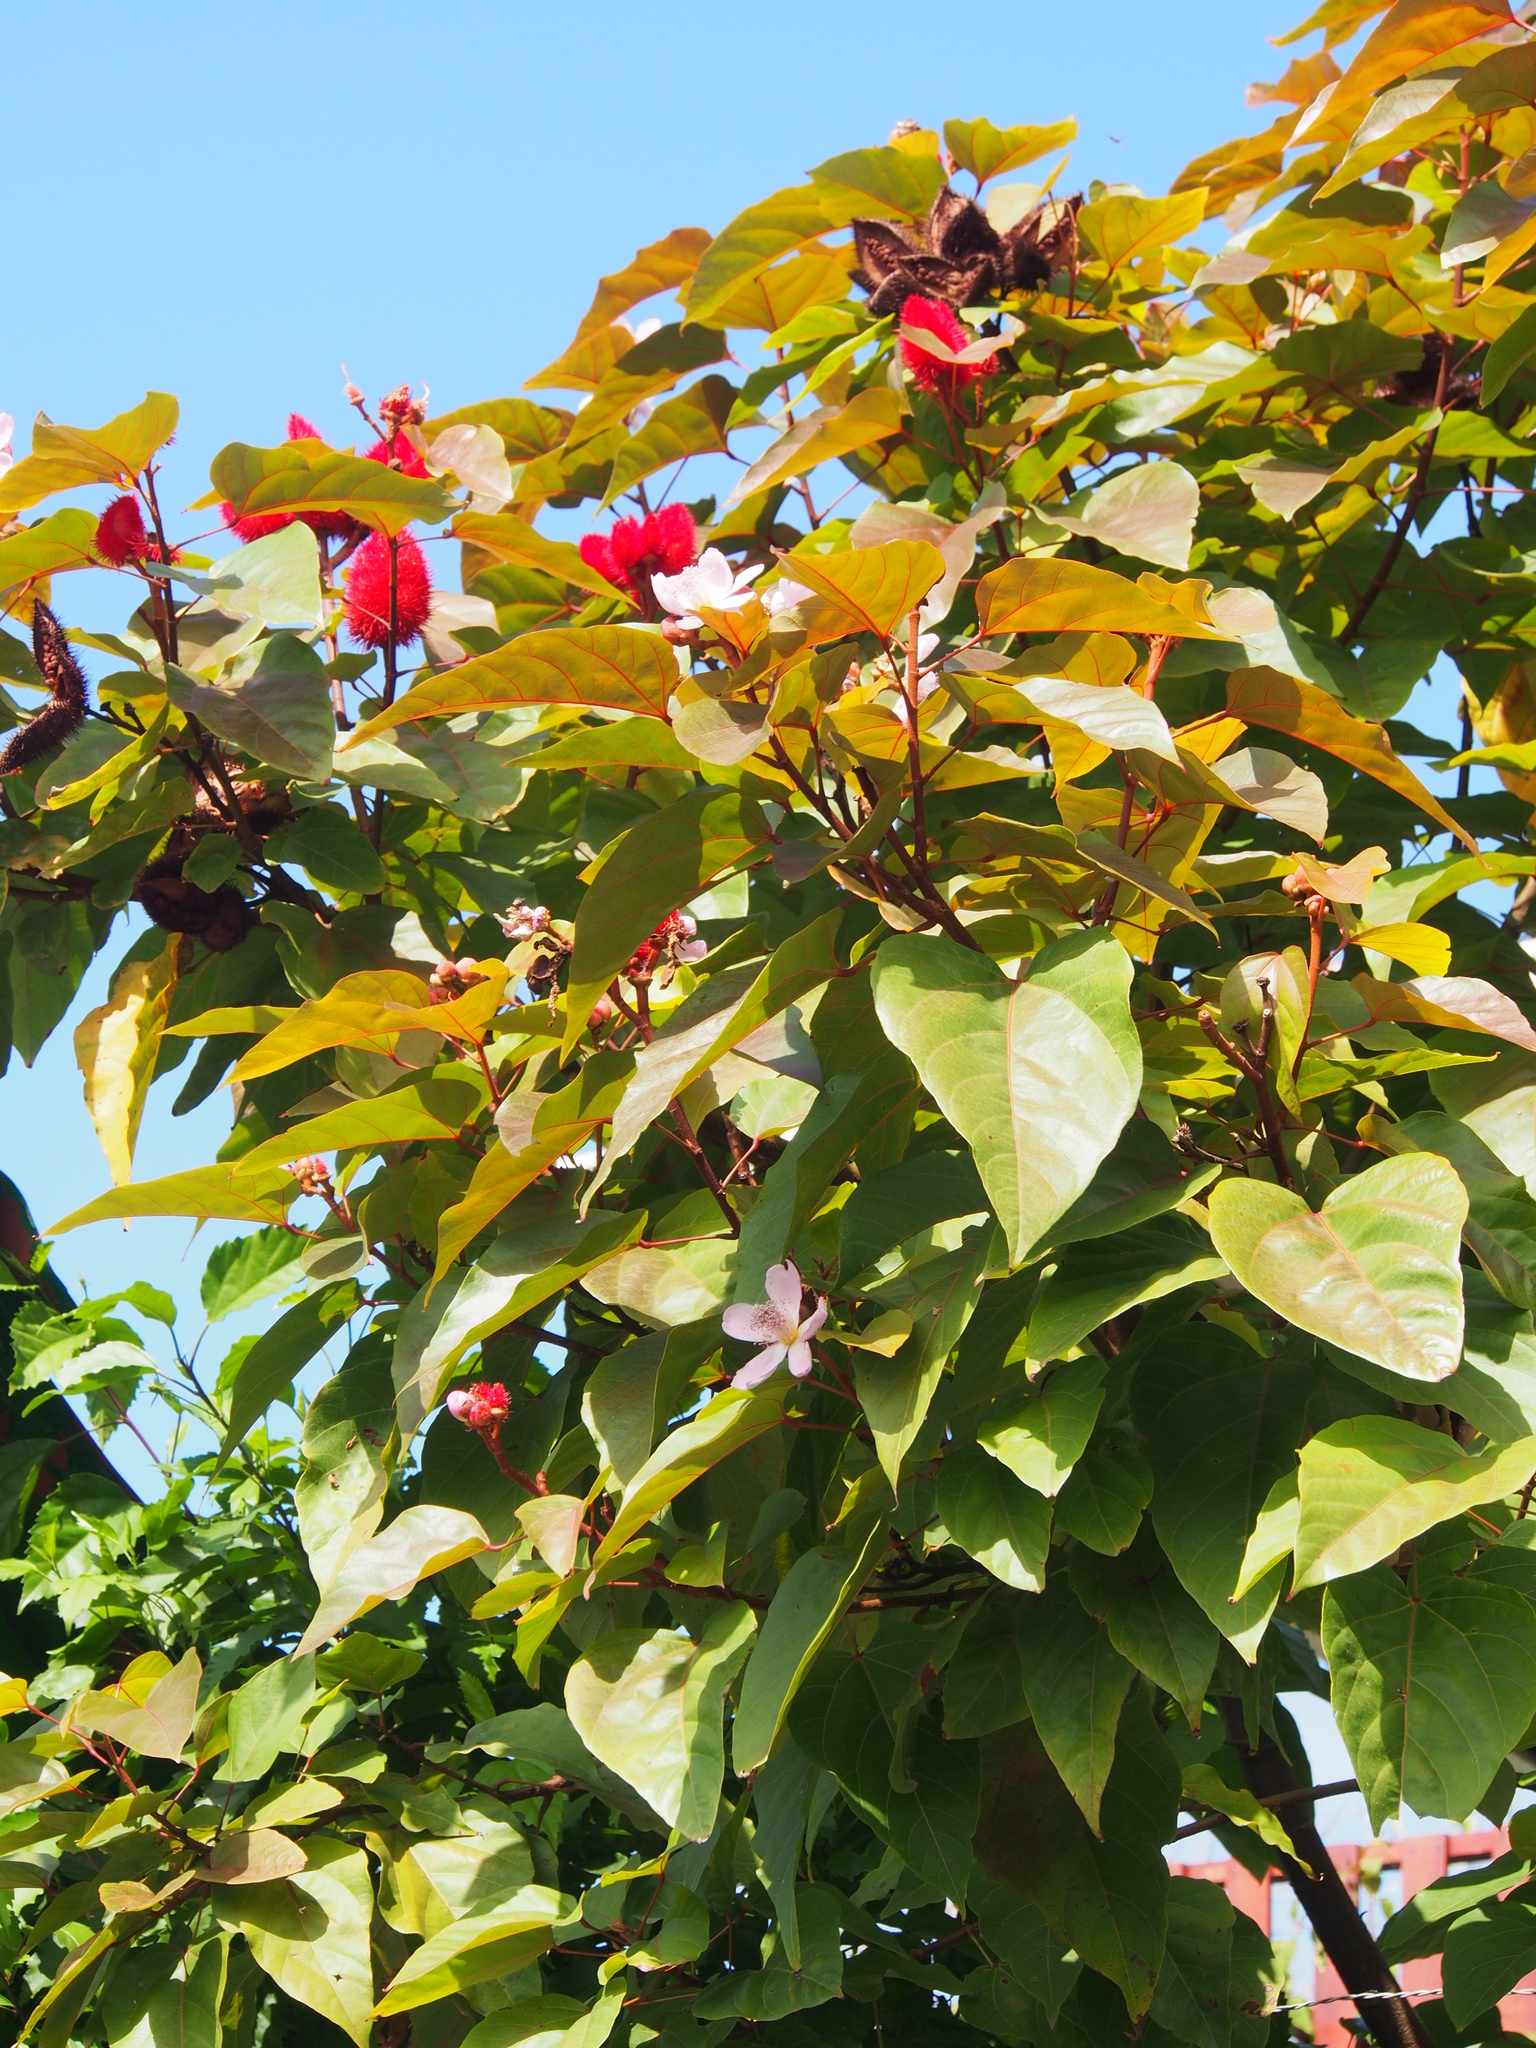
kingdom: Plantae
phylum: Tracheophyta
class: Magnoliopsida
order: Malvales
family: Bixaceae
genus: Bixa
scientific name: Bixa orellana
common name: Lipsticktree
